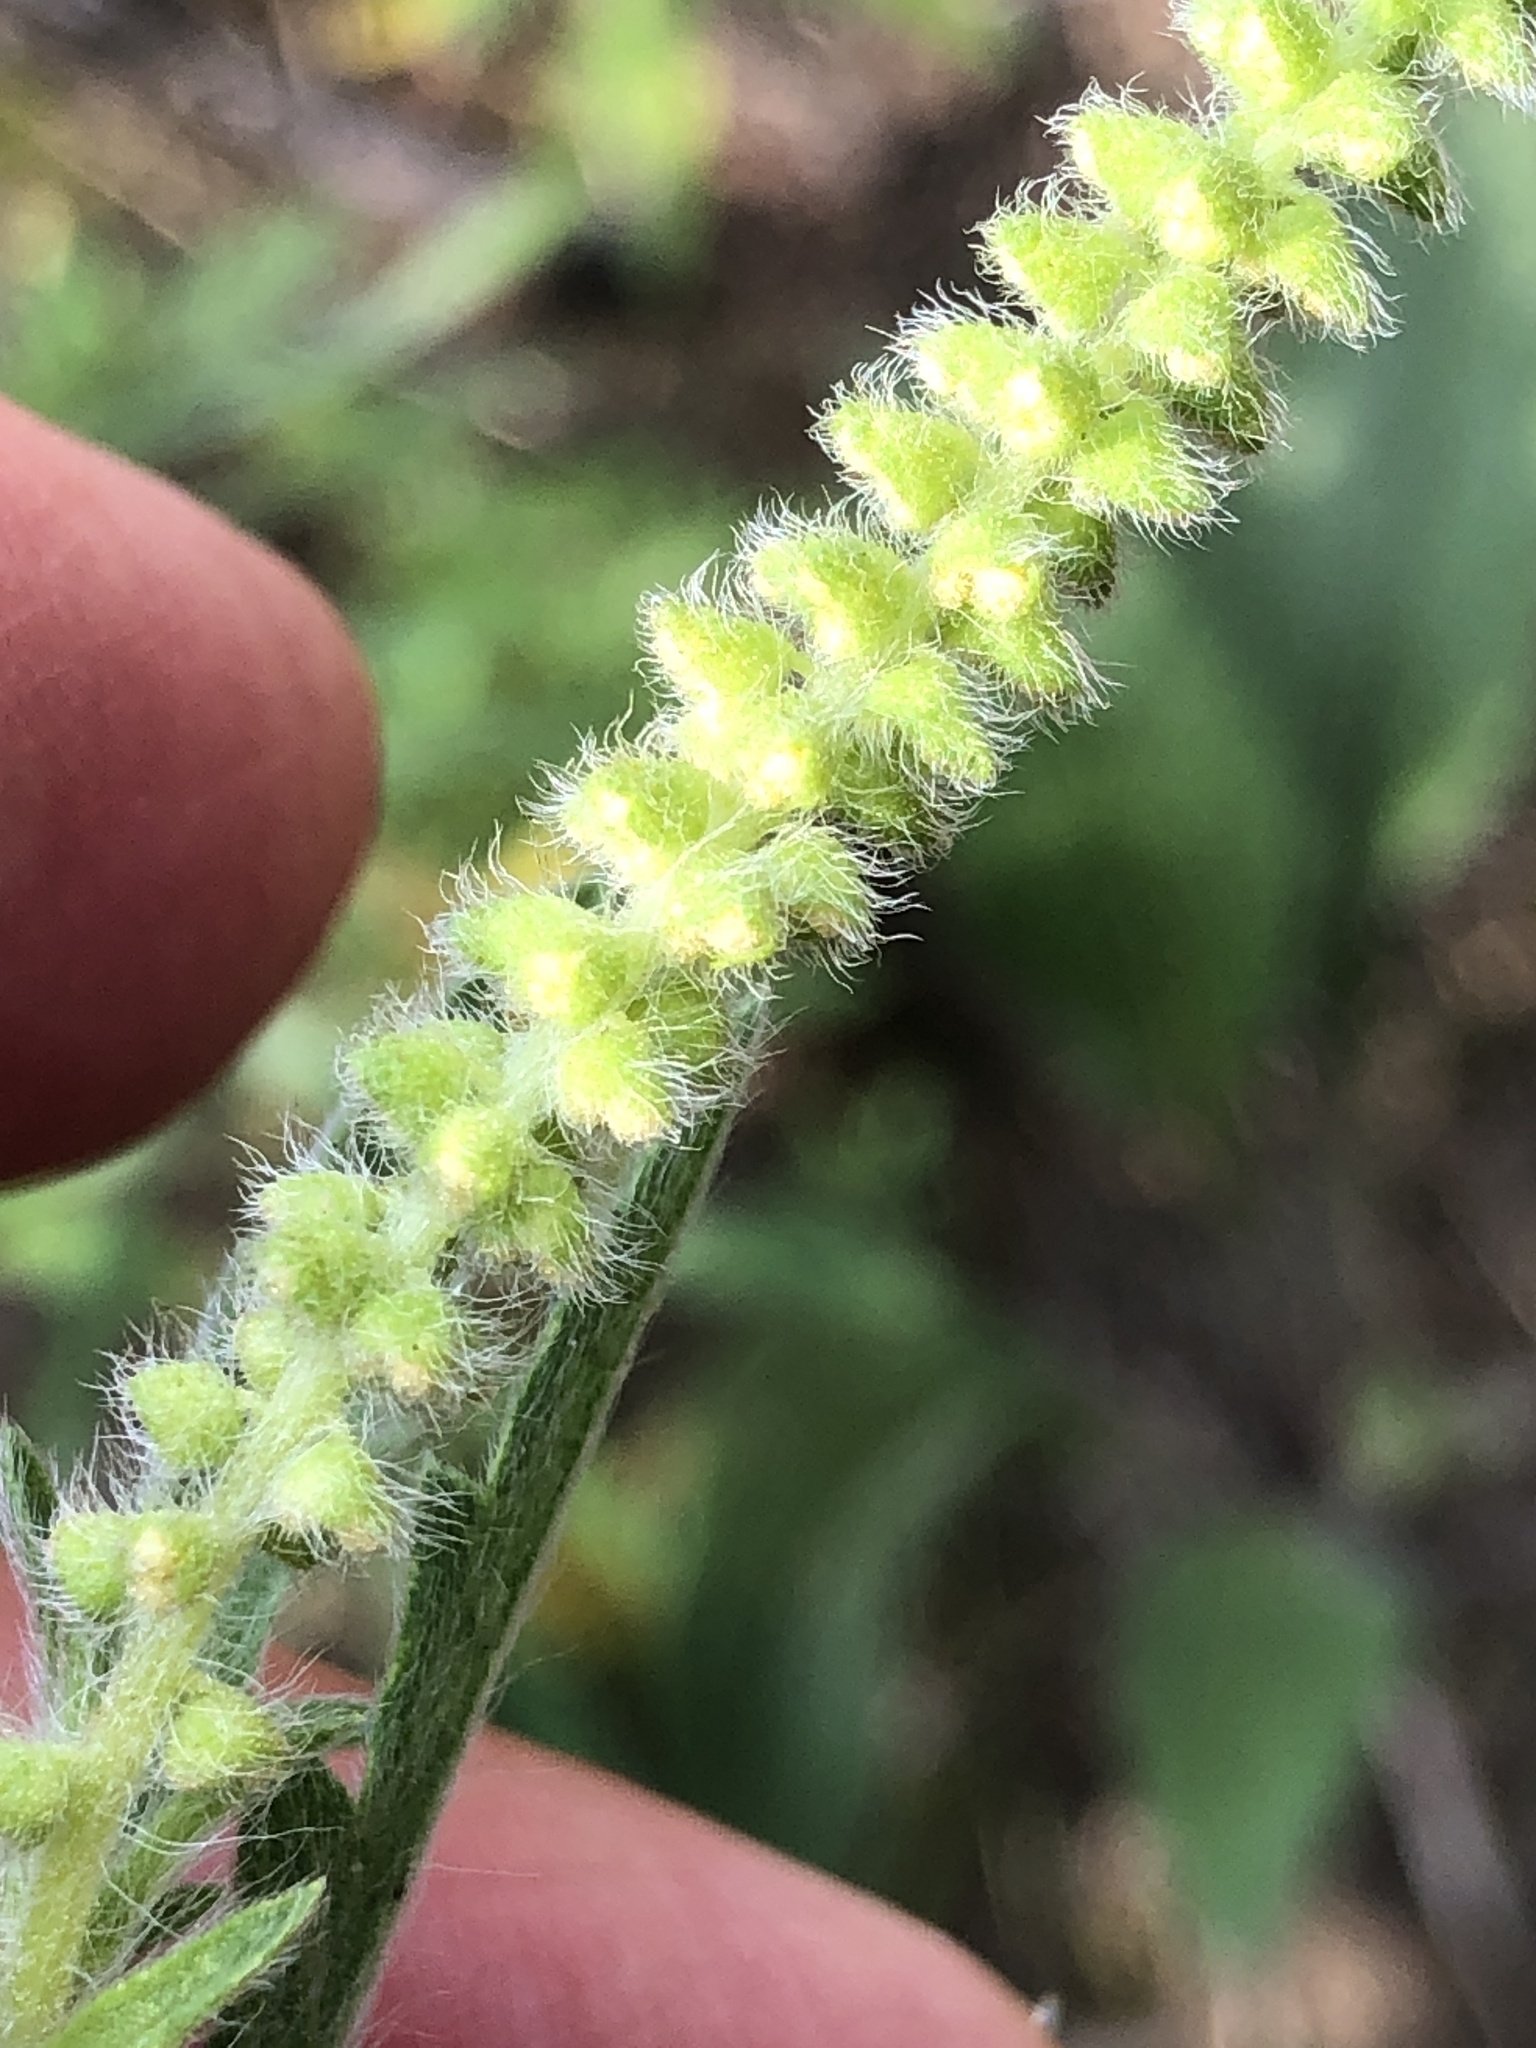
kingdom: Plantae
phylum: Tracheophyta
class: Magnoliopsida
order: Asterales
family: Asteraceae
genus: Ambrosia
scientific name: Ambrosia psilostachya
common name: Perennial ragweed
